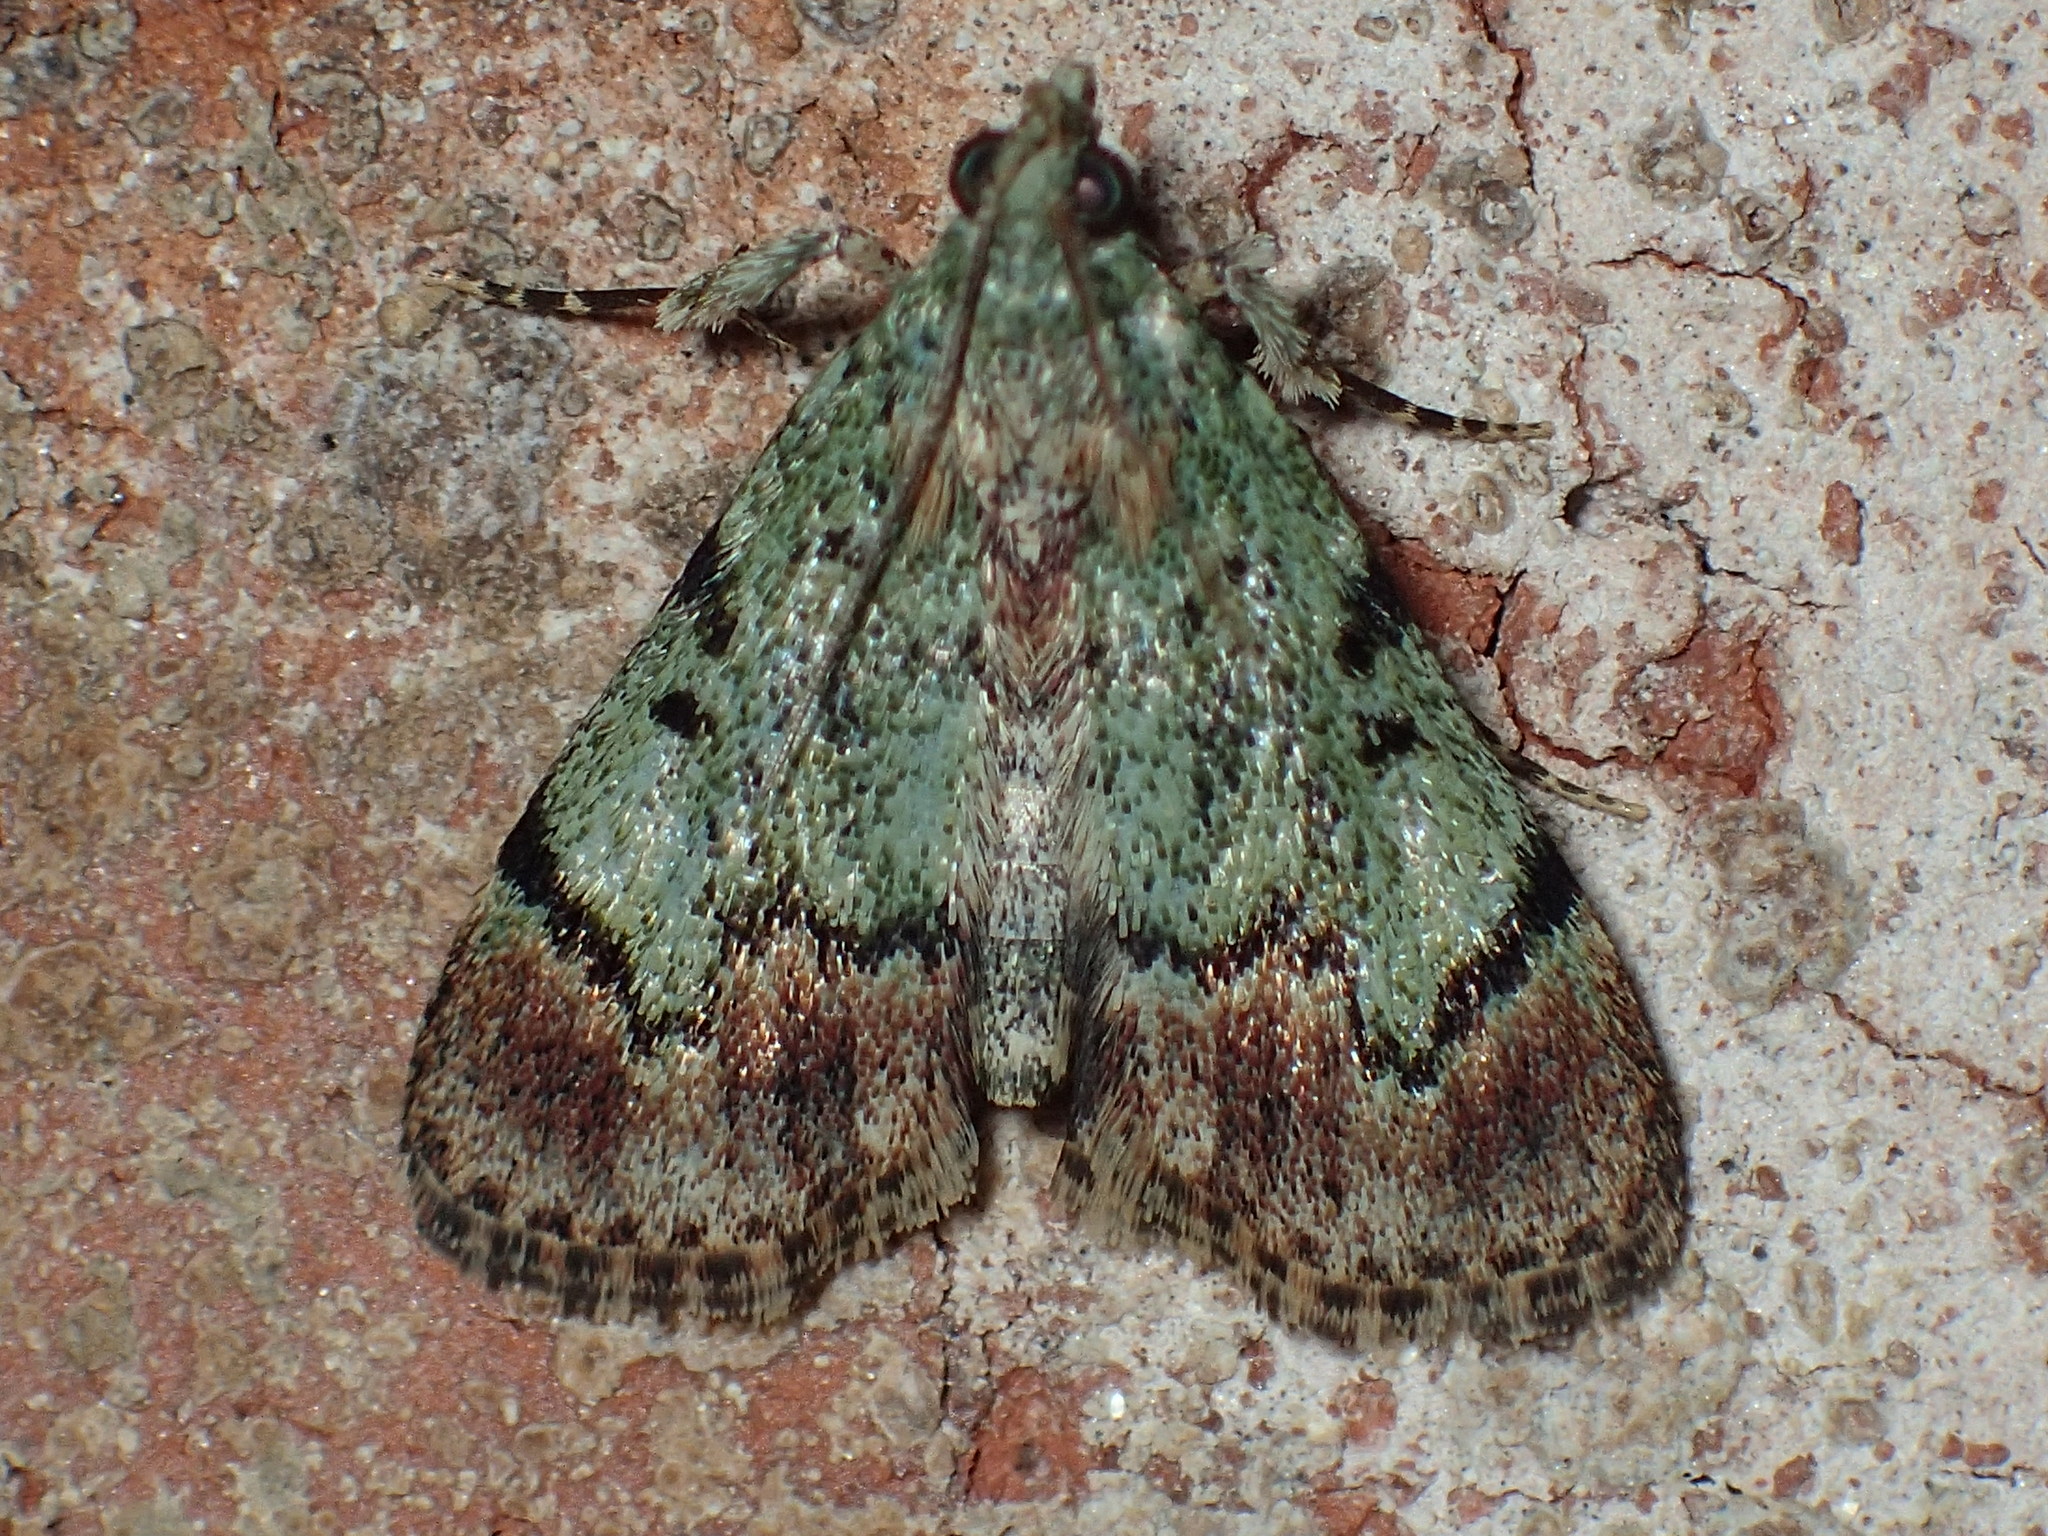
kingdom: Animalia
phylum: Arthropoda
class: Insecta
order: Lepidoptera
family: Pyralidae
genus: Epipaschia
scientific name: Epipaschia superatalis
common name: Dimorphic macalla moth
